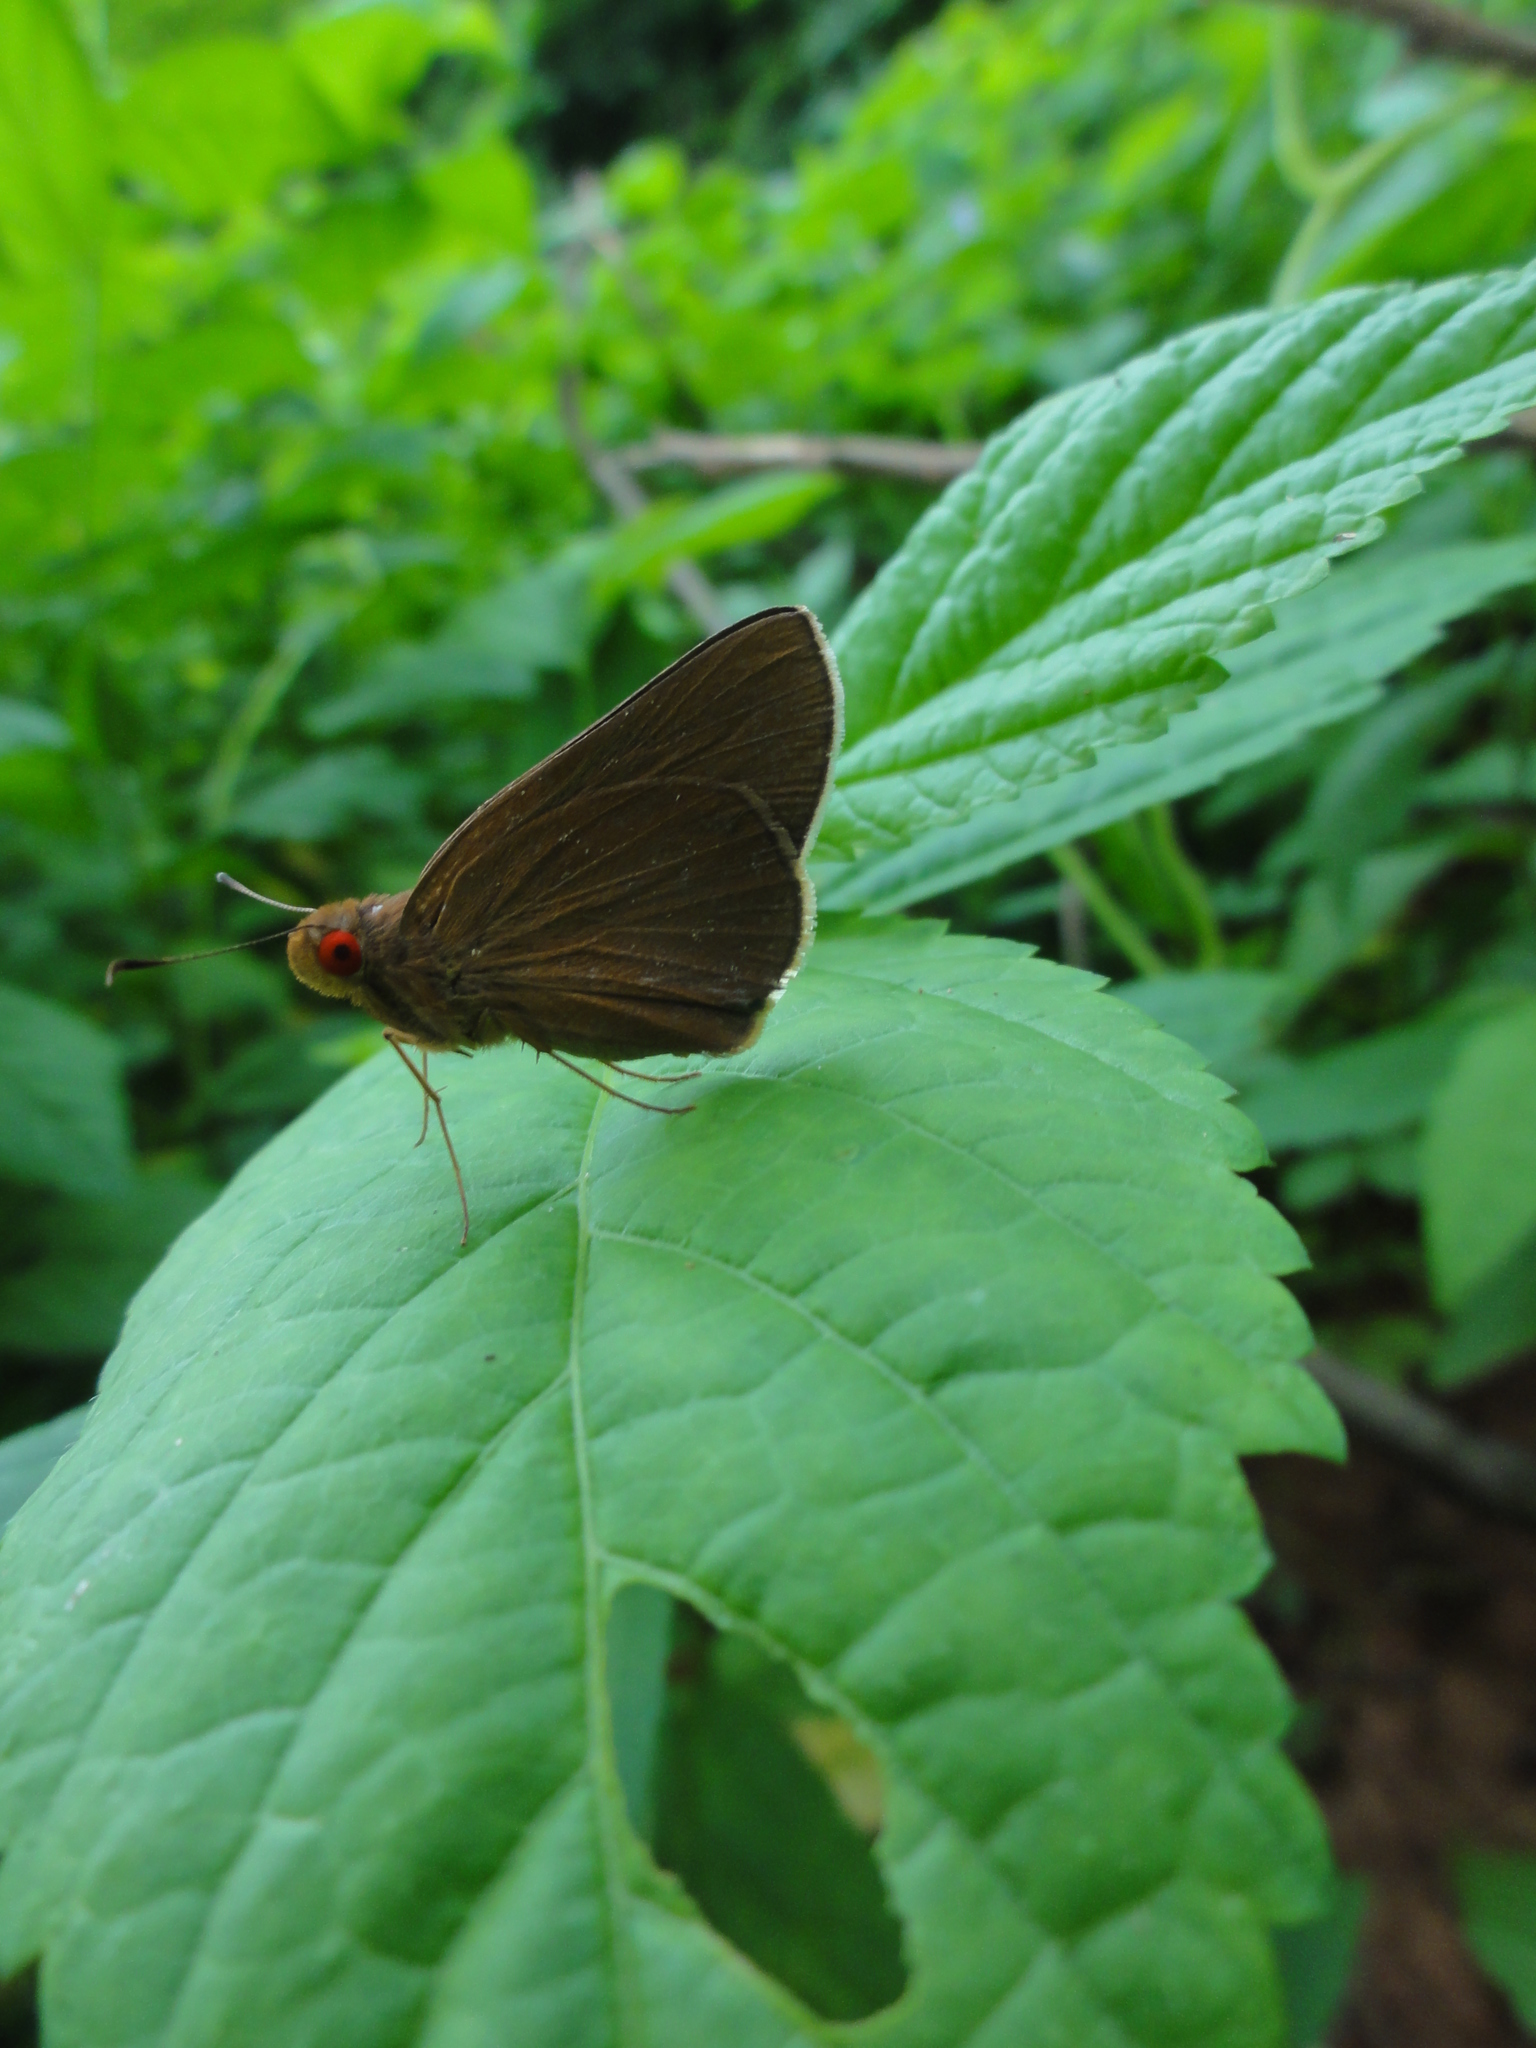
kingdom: Animalia
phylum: Arthropoda
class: Insecta
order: Lepidoptera
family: Hesperiidae
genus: Matapa
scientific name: Matapa aria
